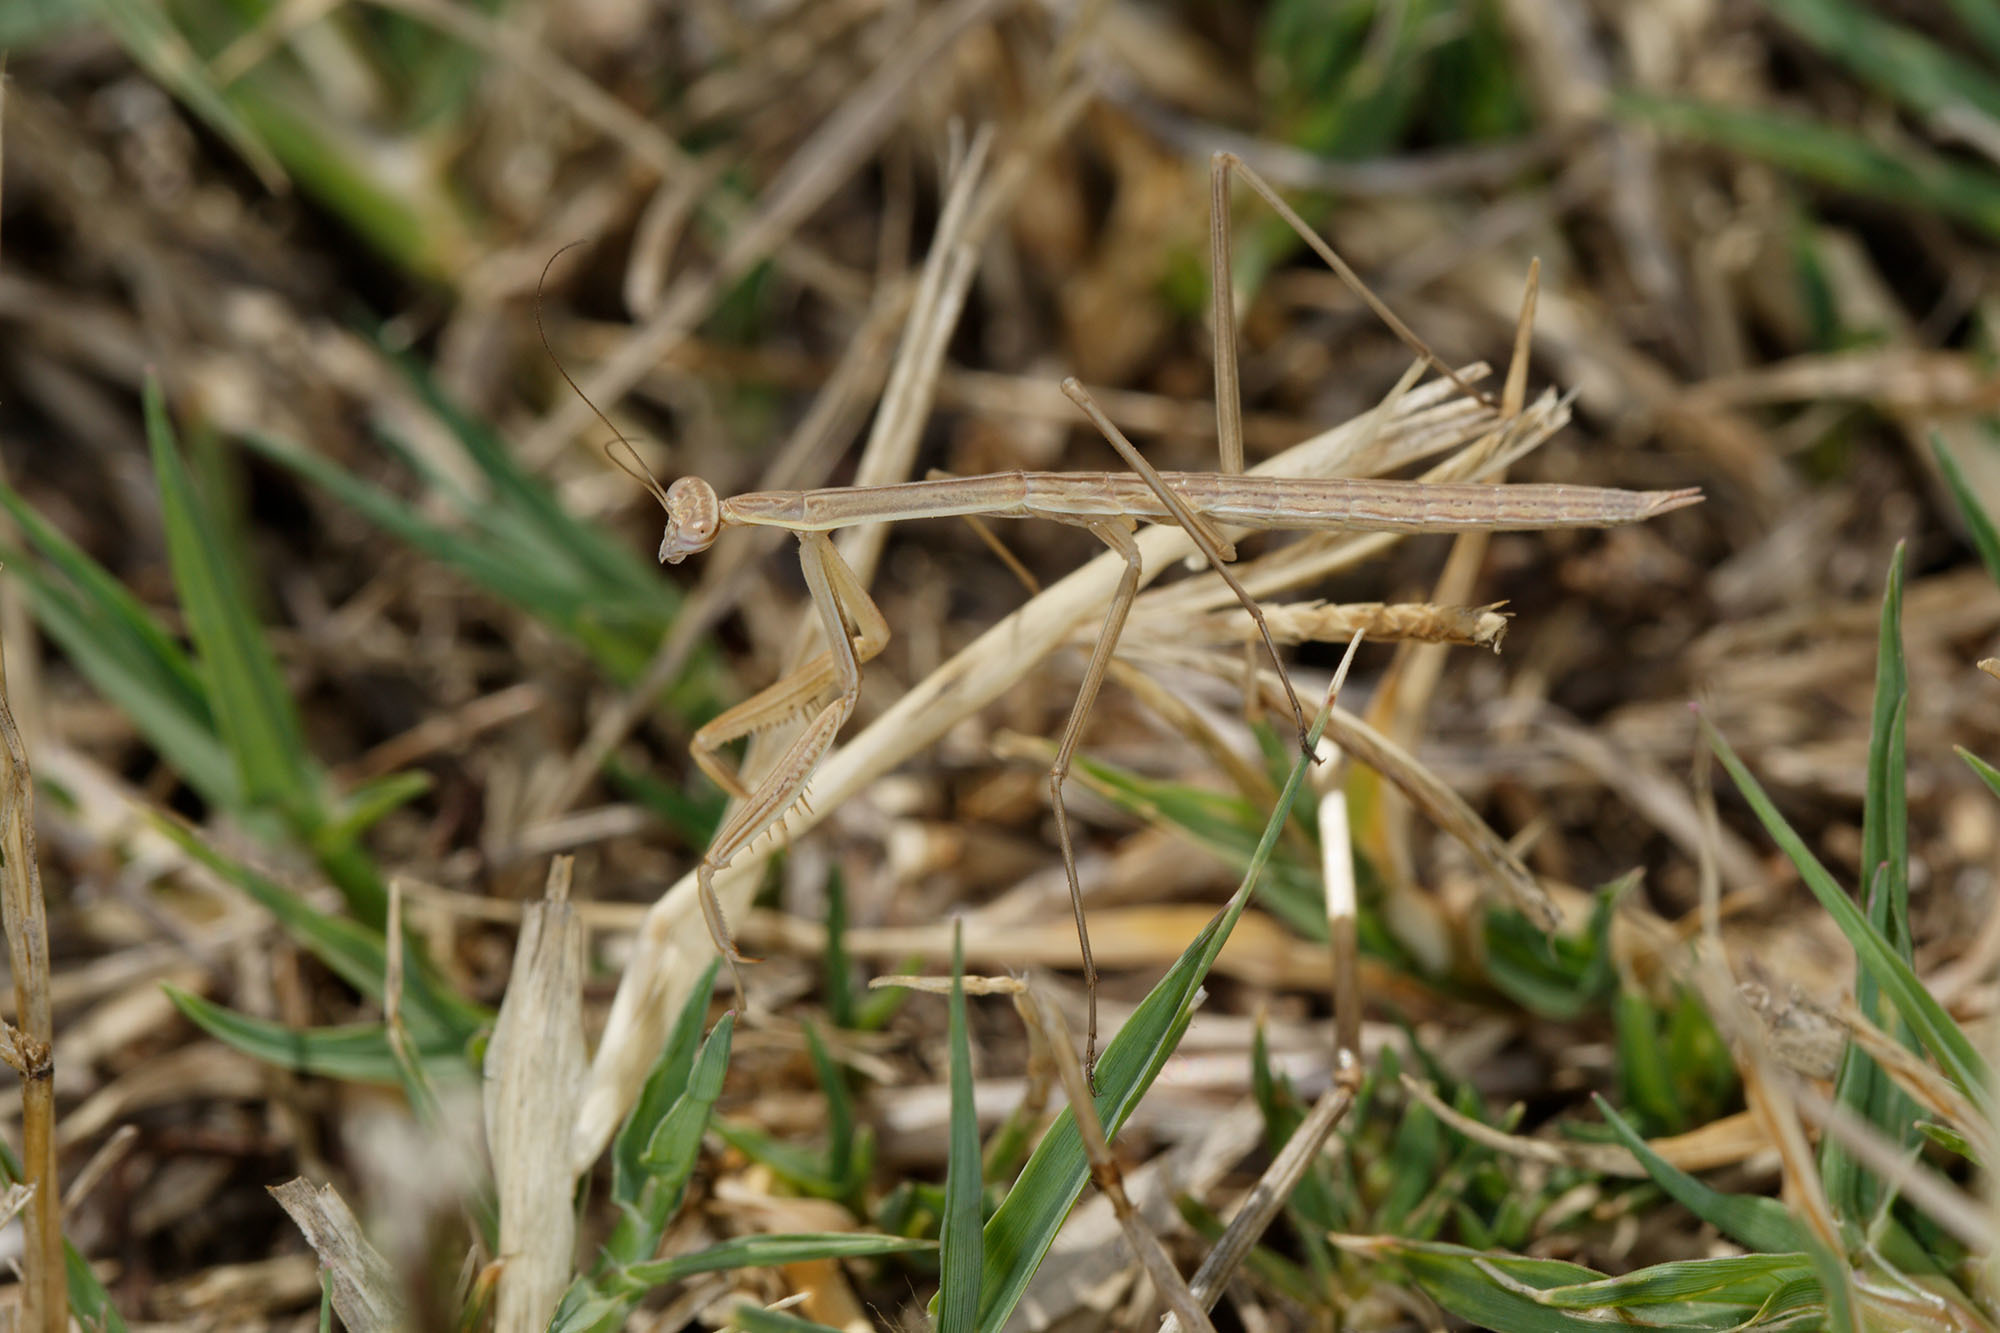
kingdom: Animalia
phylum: Arthropoda
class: Insecta
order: Mantodea
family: Mantidae
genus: Tenodera
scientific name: Tenodera australasiae
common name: Purple-winged mantis
